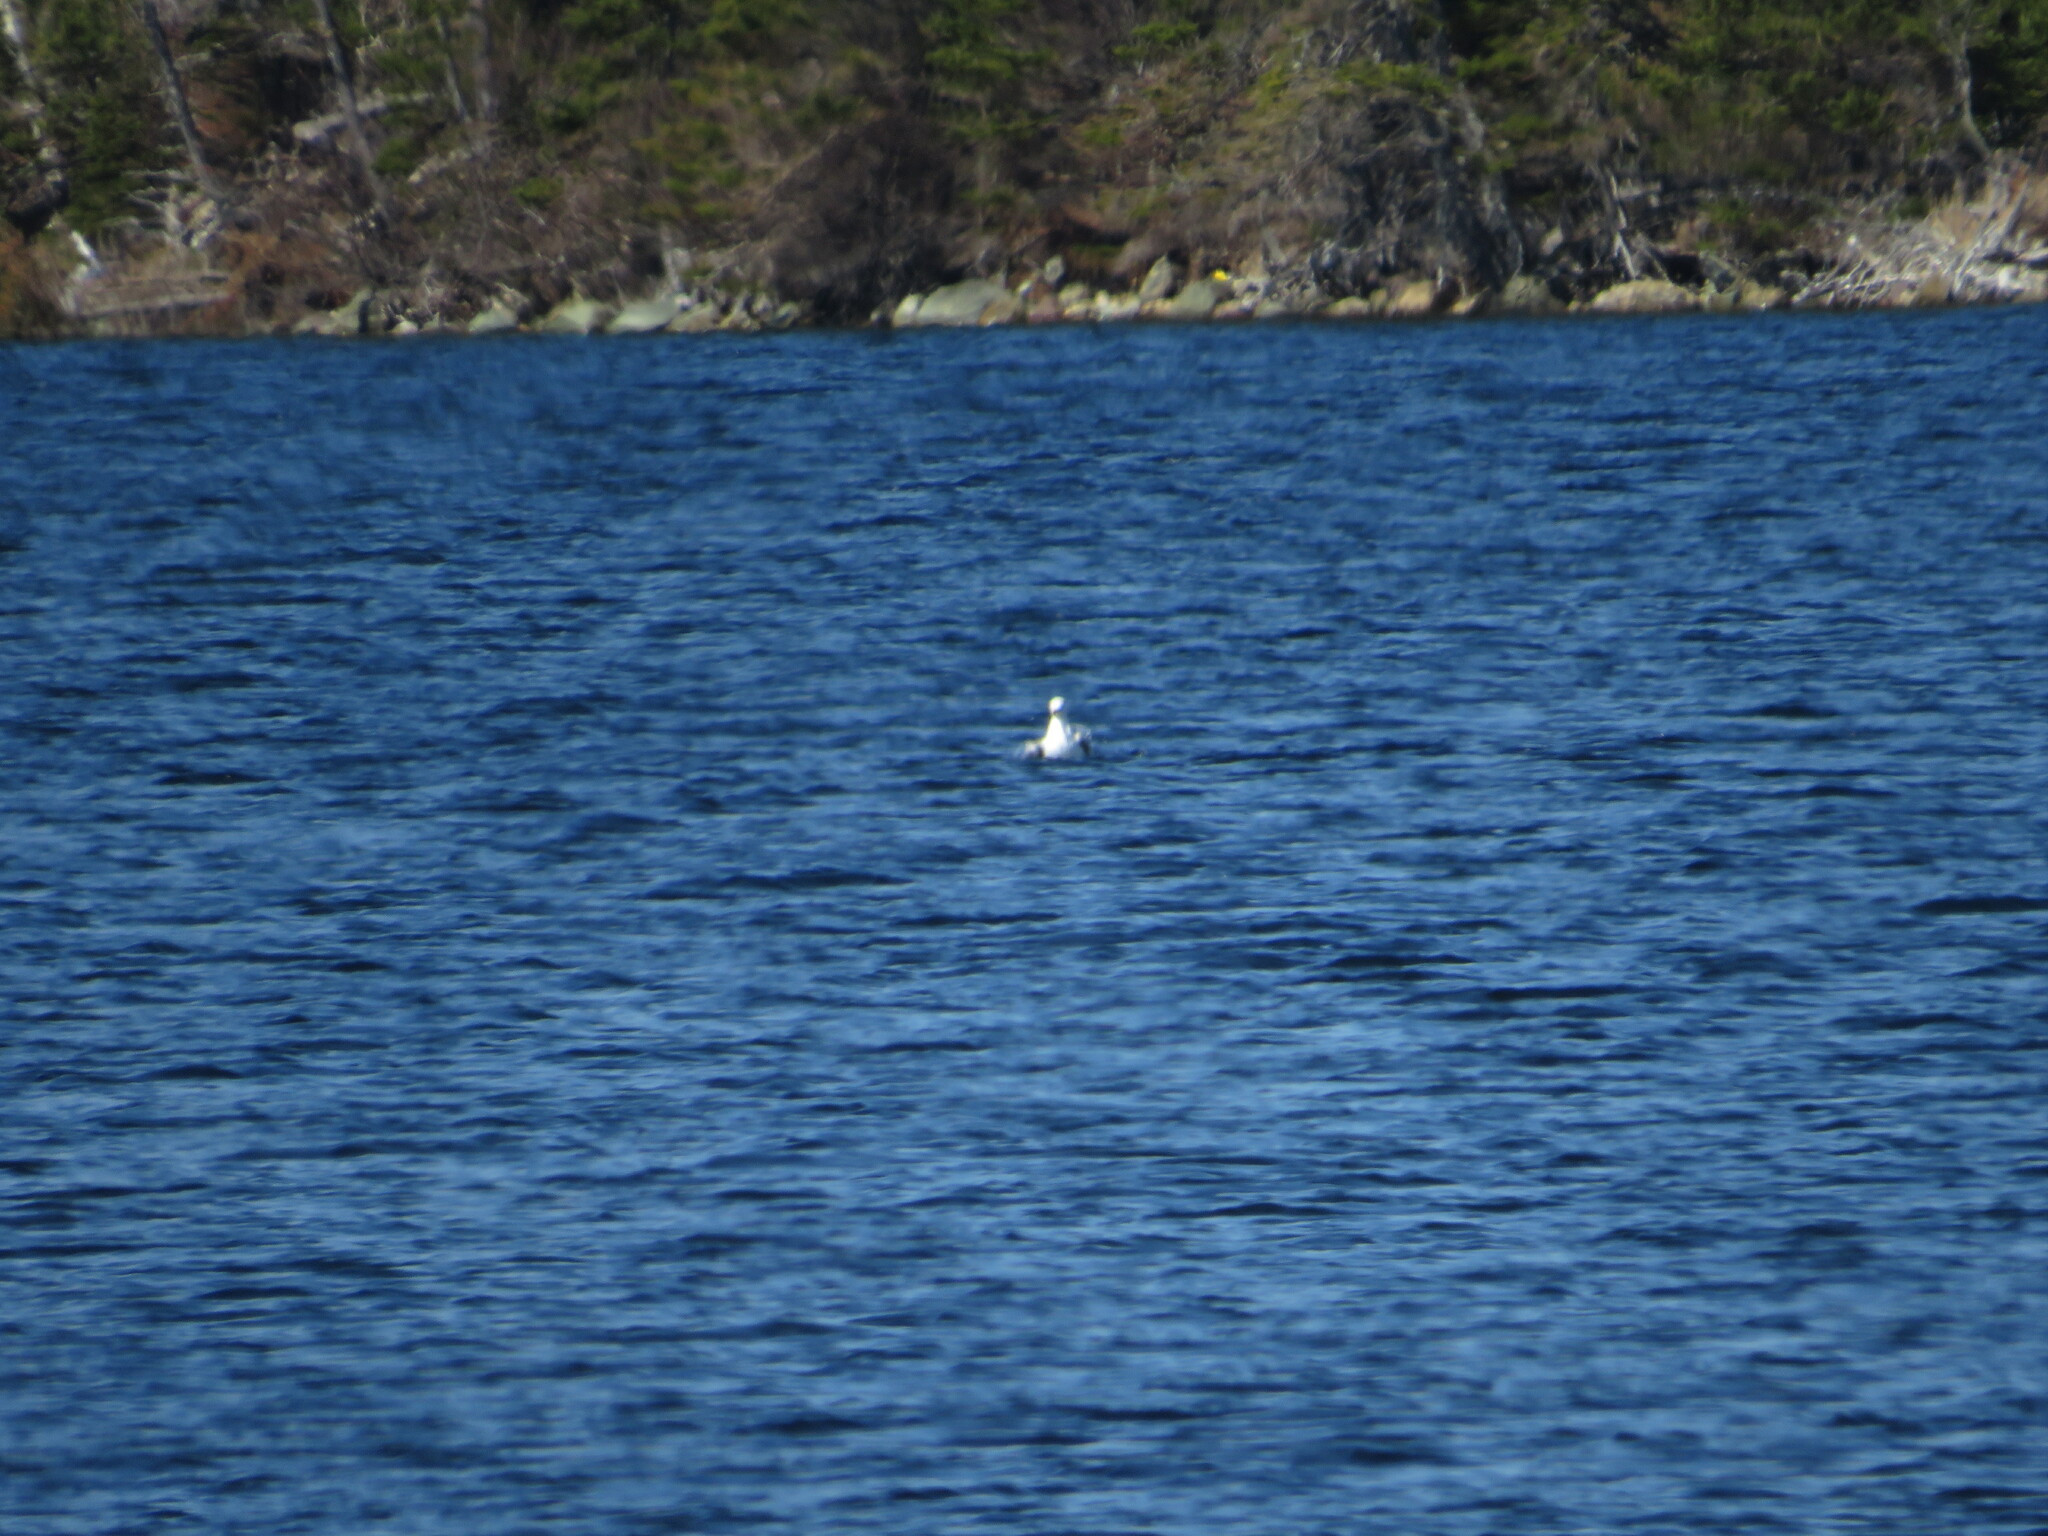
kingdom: Animalia
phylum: Chordata
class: Aves
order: Charadriiformes
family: Laridae
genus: Larus
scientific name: Larus argentatus
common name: Herring gull
